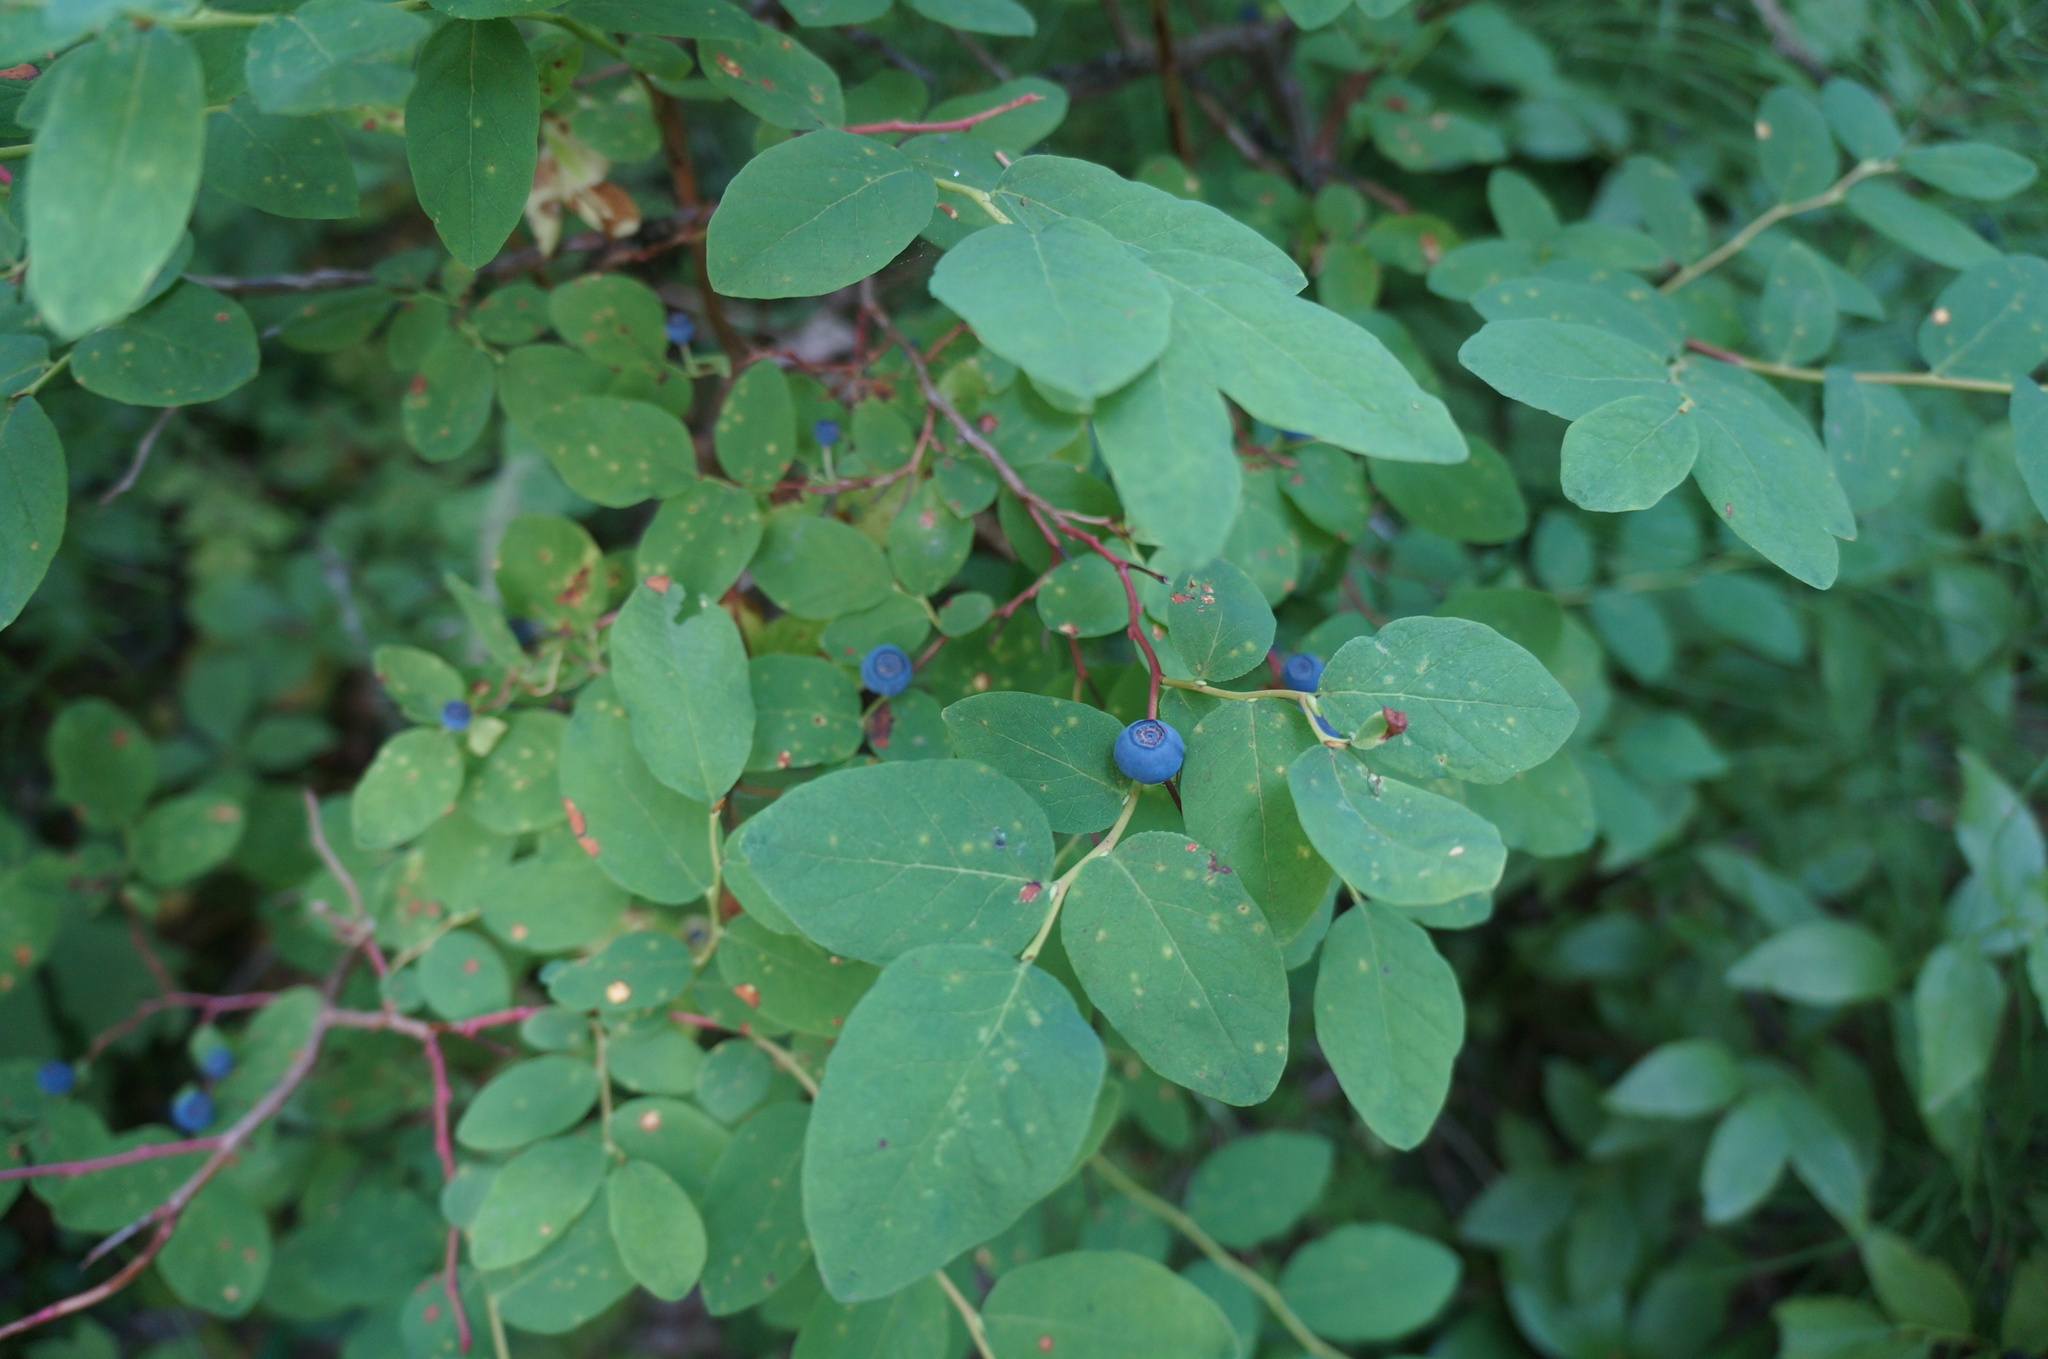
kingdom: Plantae
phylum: Tracheophyta
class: Magnoliopsida
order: Ericales
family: Ericaceae
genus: Vaccinium
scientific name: Vaccinium ovalifolium
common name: Early blueberry
